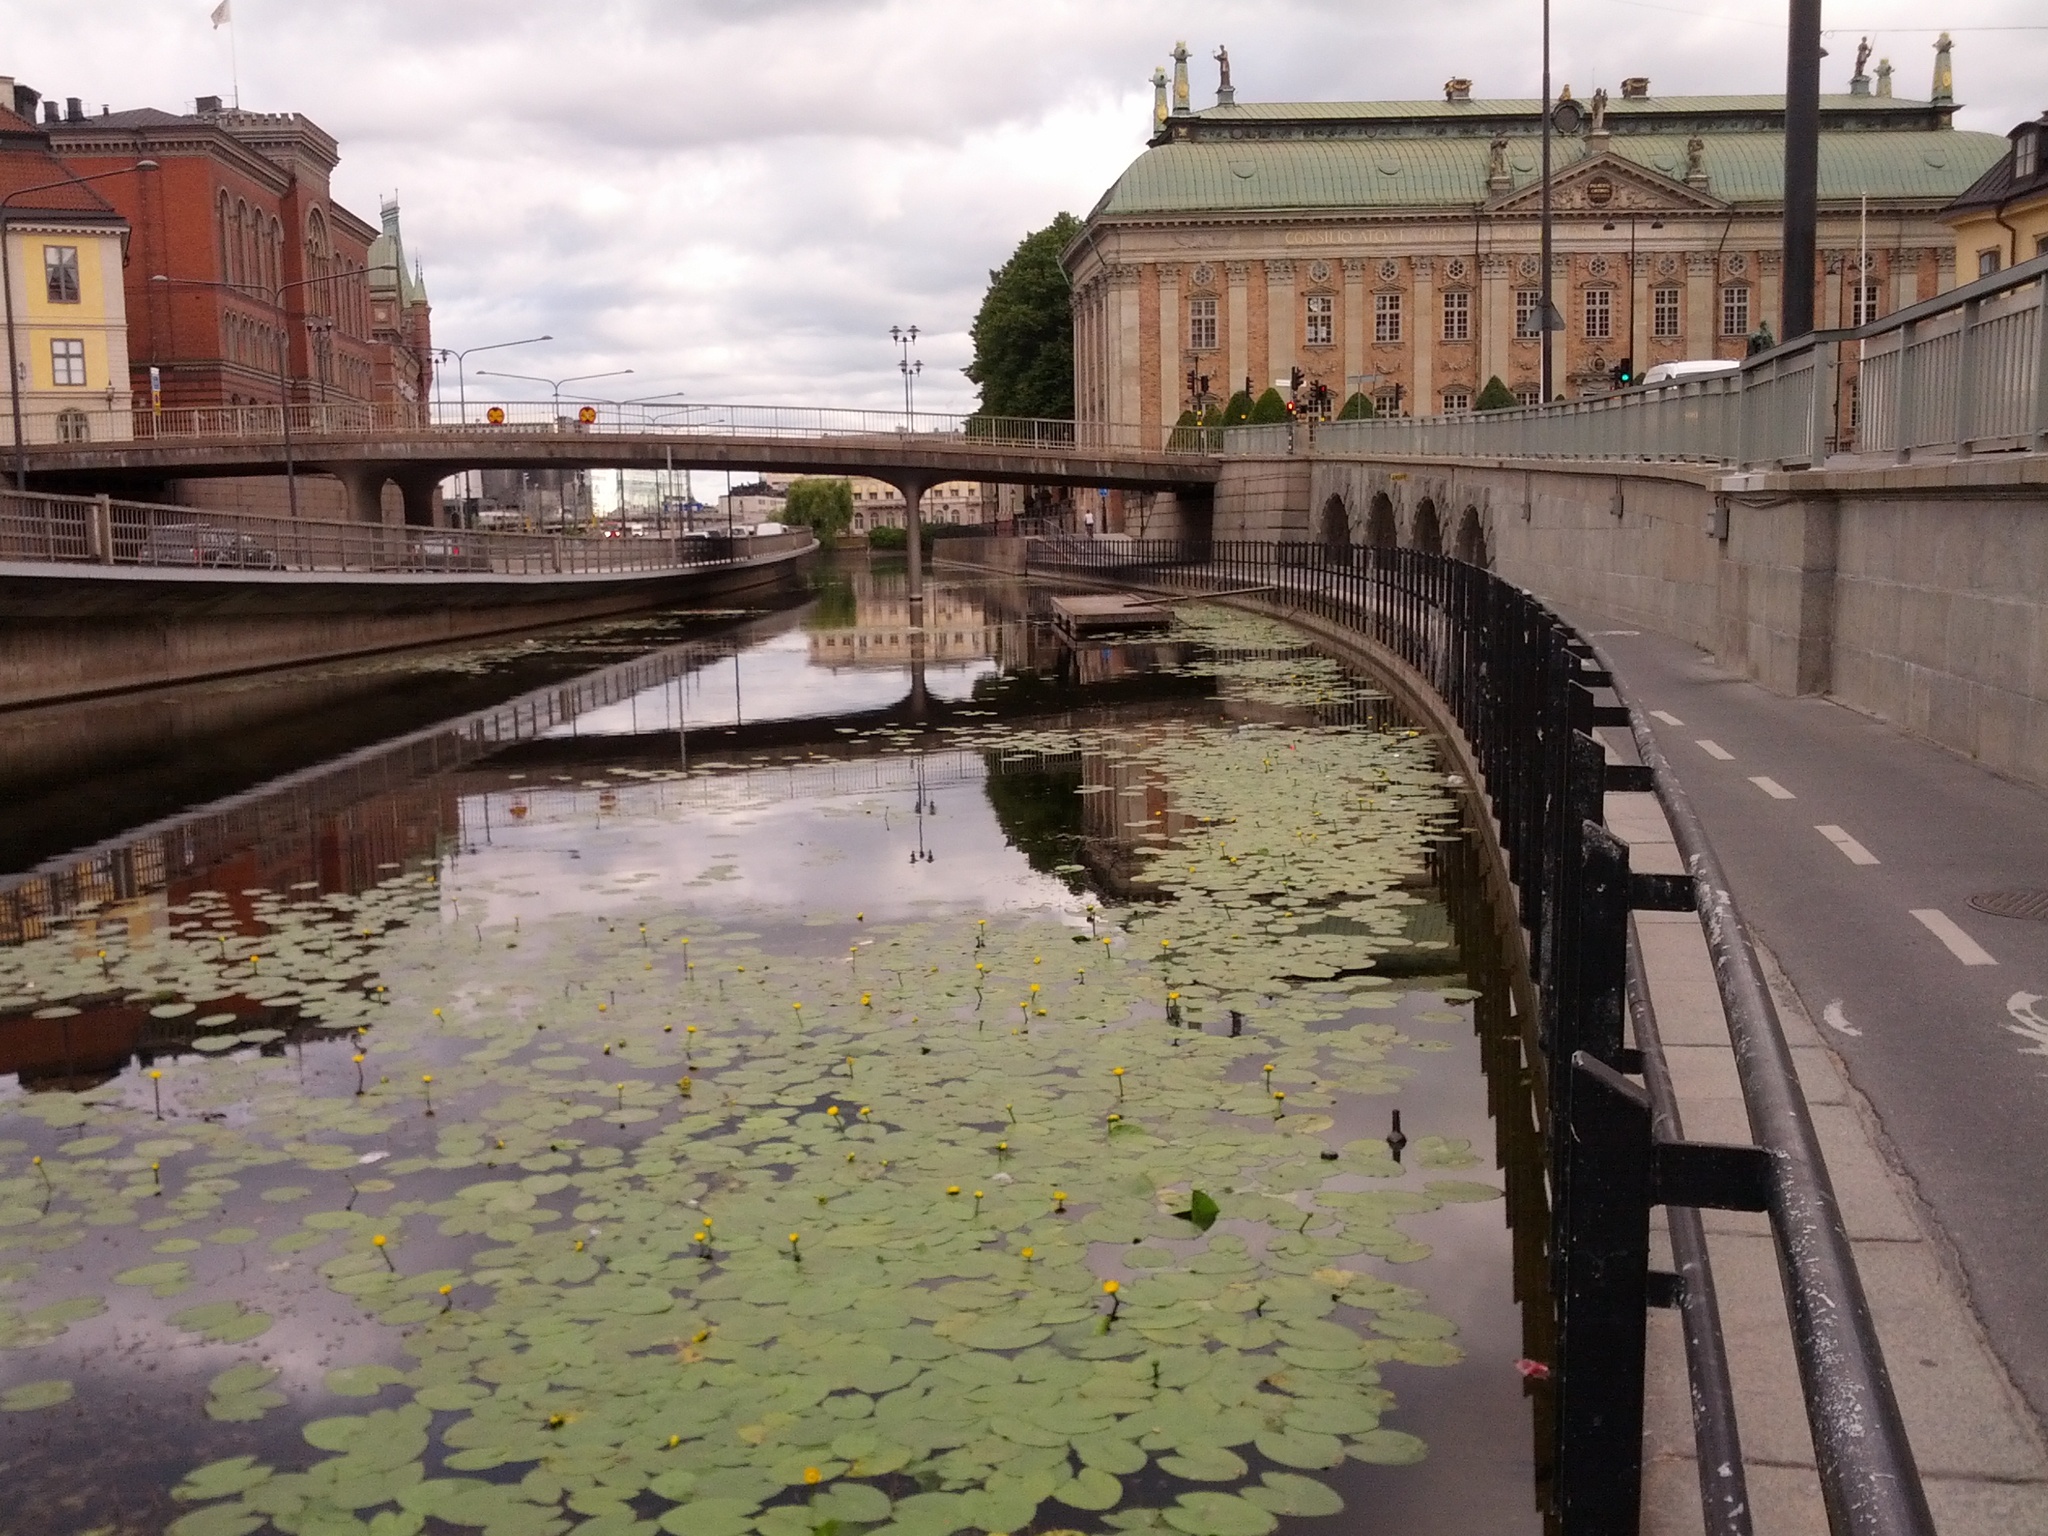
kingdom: Plantae
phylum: Tracheophyta
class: Magnoliopsida
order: Nymphaeales
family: Nymphaeaceae
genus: Nuphar
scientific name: Nuphar lutea
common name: Yellow water-lily
